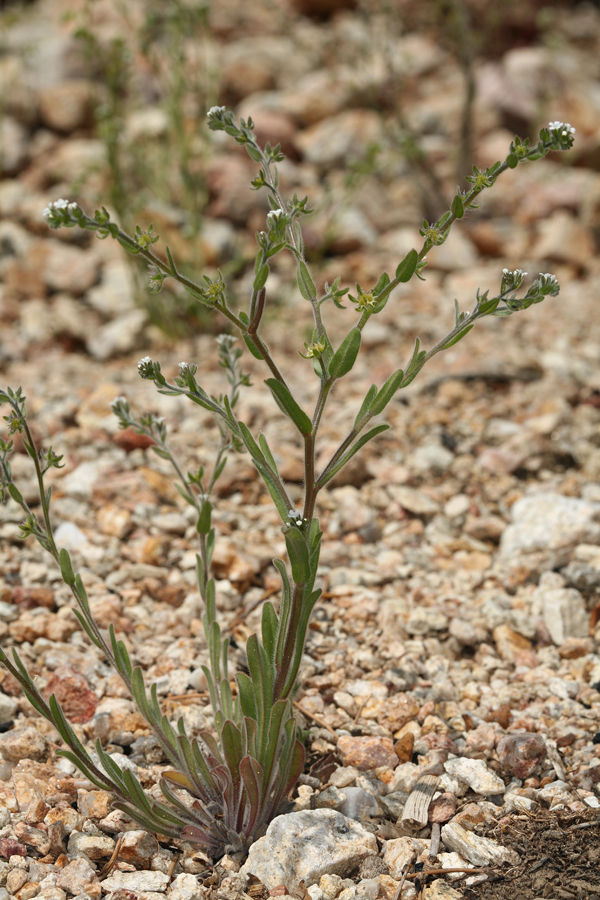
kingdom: Plantae
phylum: Tracheophyta
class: Magnoliopsida
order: Boraginales
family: Boraginaceae
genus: Lappula
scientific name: Lappula occidentalis
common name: Western stickseed
